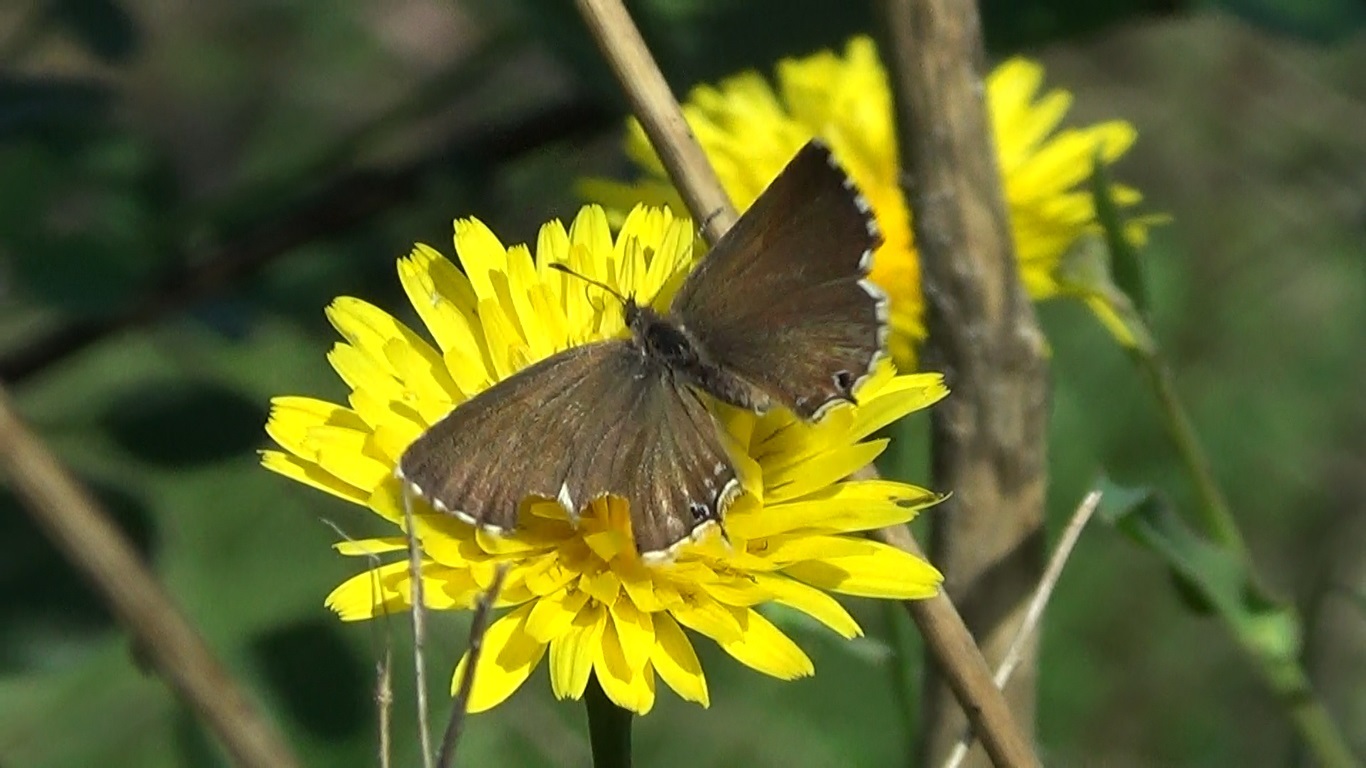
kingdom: Animalia
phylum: Arthropoda
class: Insecta
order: Lepidoptera
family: Lycaenidae
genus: Cacyreus
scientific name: Cacyreus marshalli
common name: Geranium bronze
